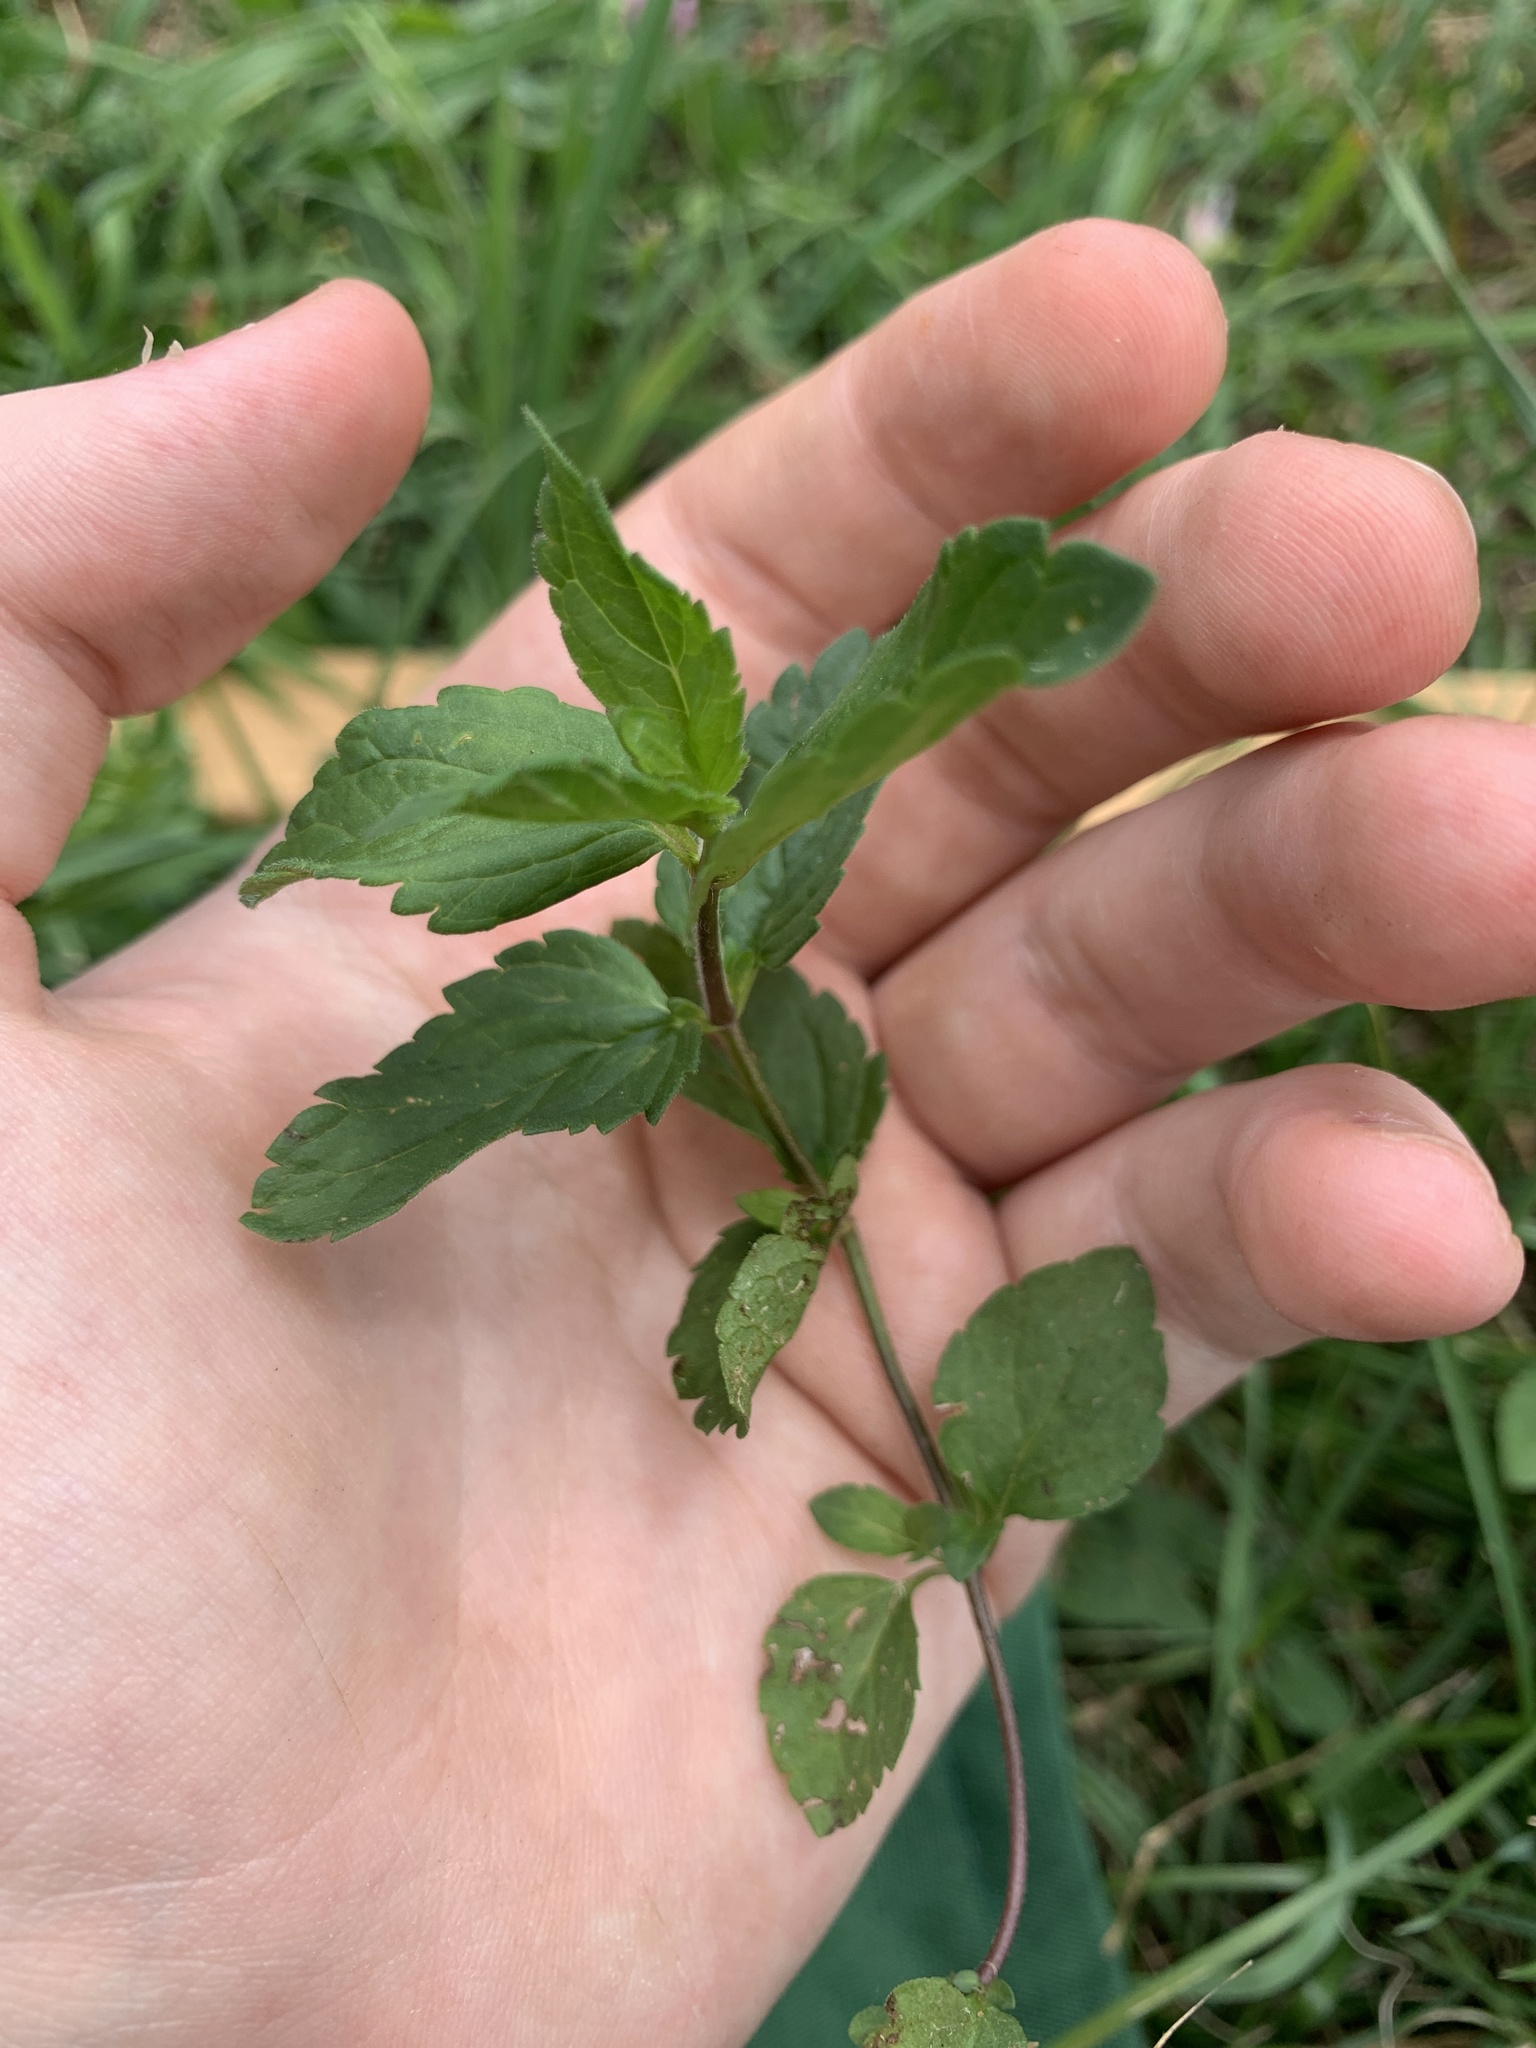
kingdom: Plantae
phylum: Tracheophyta
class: Magnoliopsida
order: Lamiales
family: Plantaginaceae
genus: Veronica
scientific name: Veronica chamaedrys
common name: Germander speedwell
